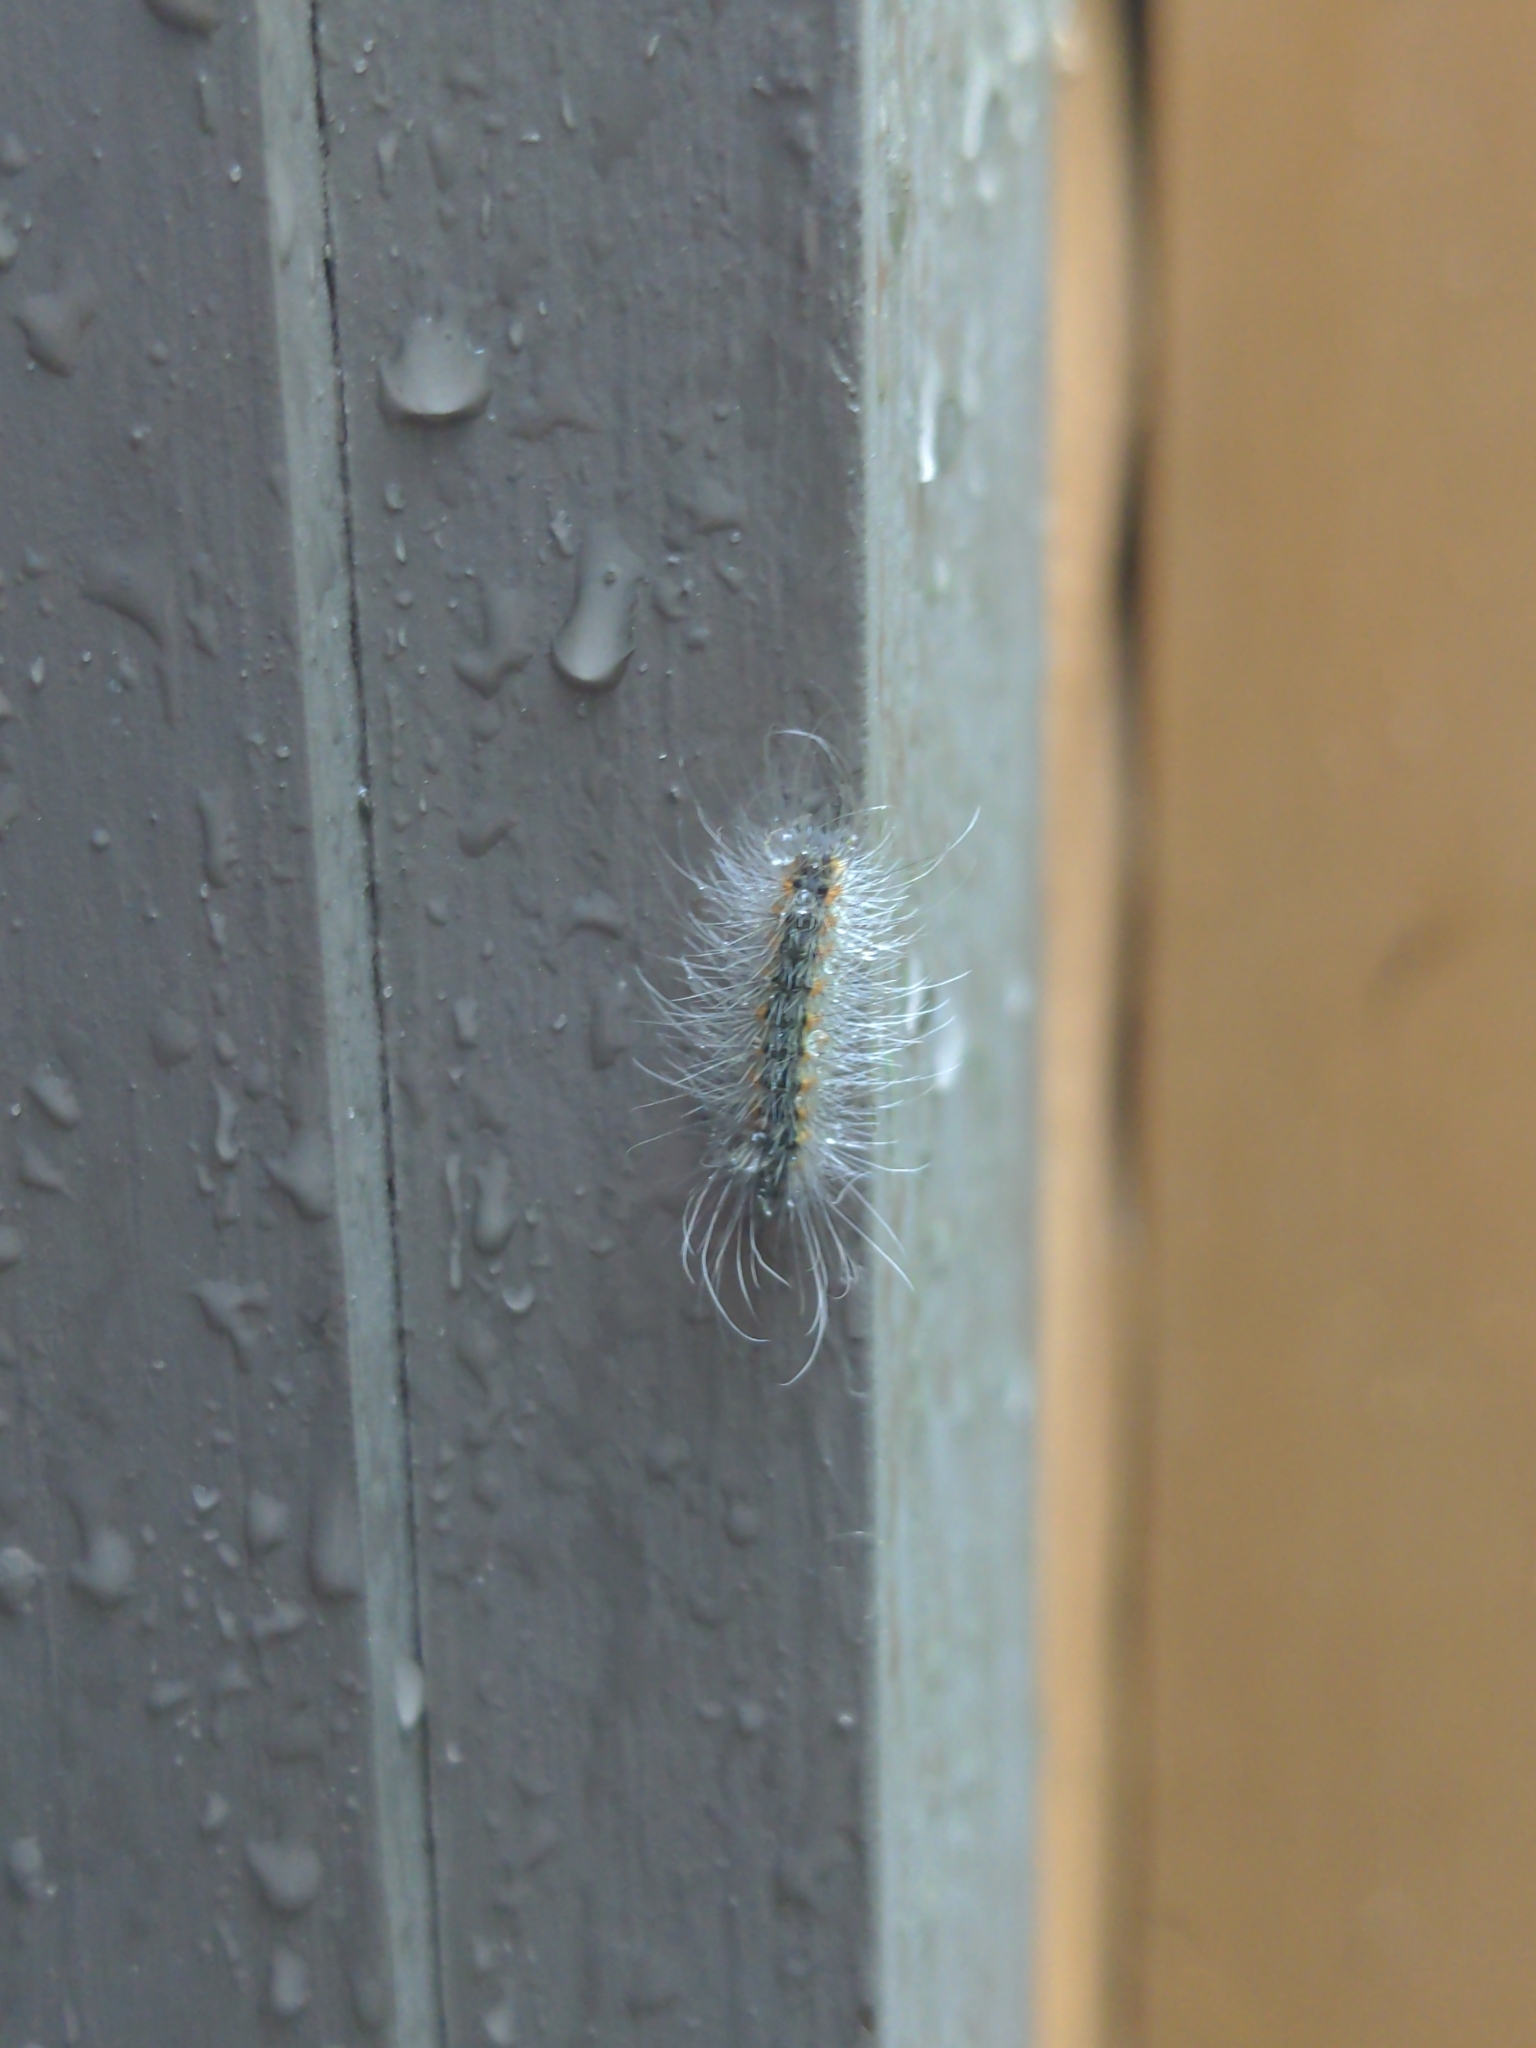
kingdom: Animalia
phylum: Arthropoda
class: Insecta
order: Lepidoptera
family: Erebidae
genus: Hyphantria
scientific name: Hyphantria cunea
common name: American white moth
